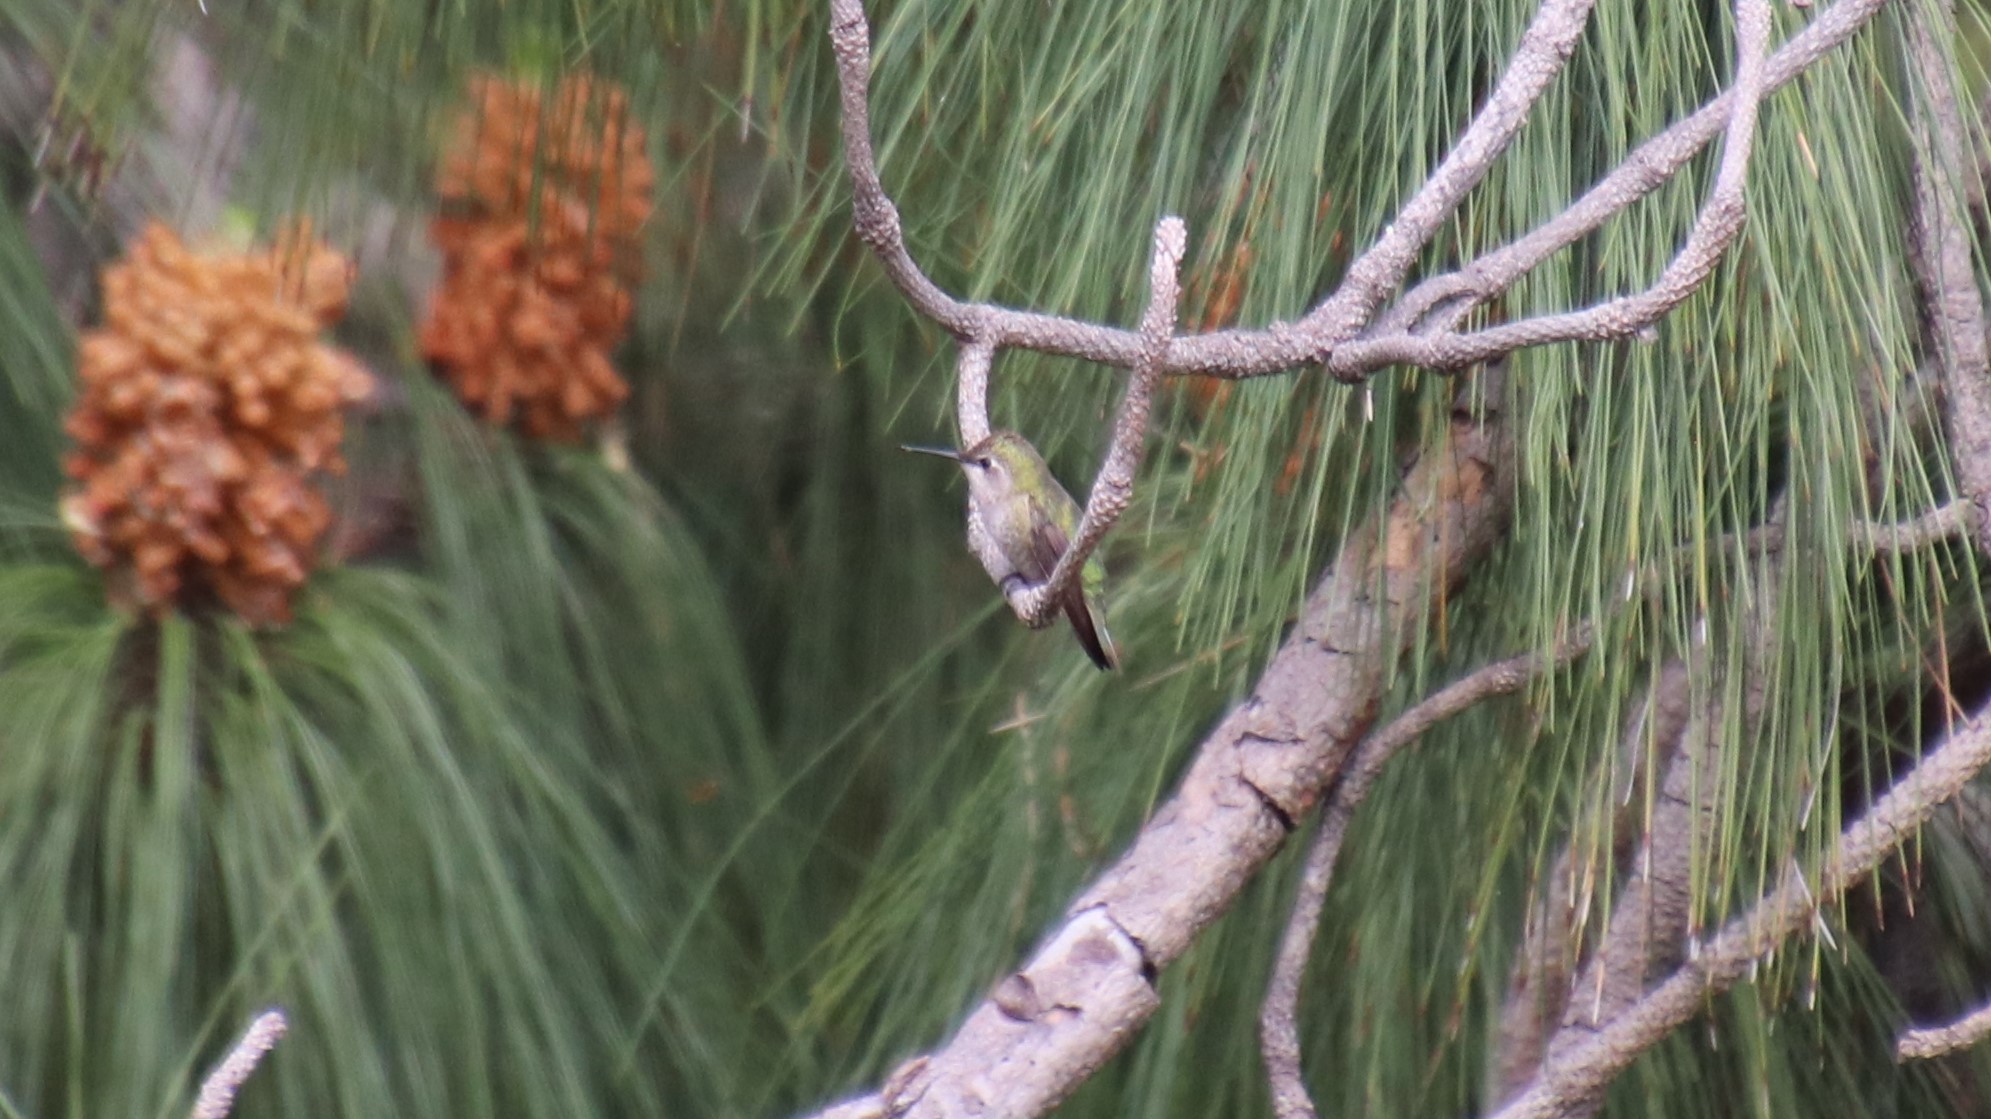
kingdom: Animalia
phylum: Chordata
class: Aves
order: Apodiformes
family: Trochilidae
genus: Calypte
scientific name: Calypte anna
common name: Anna's hummingbird
